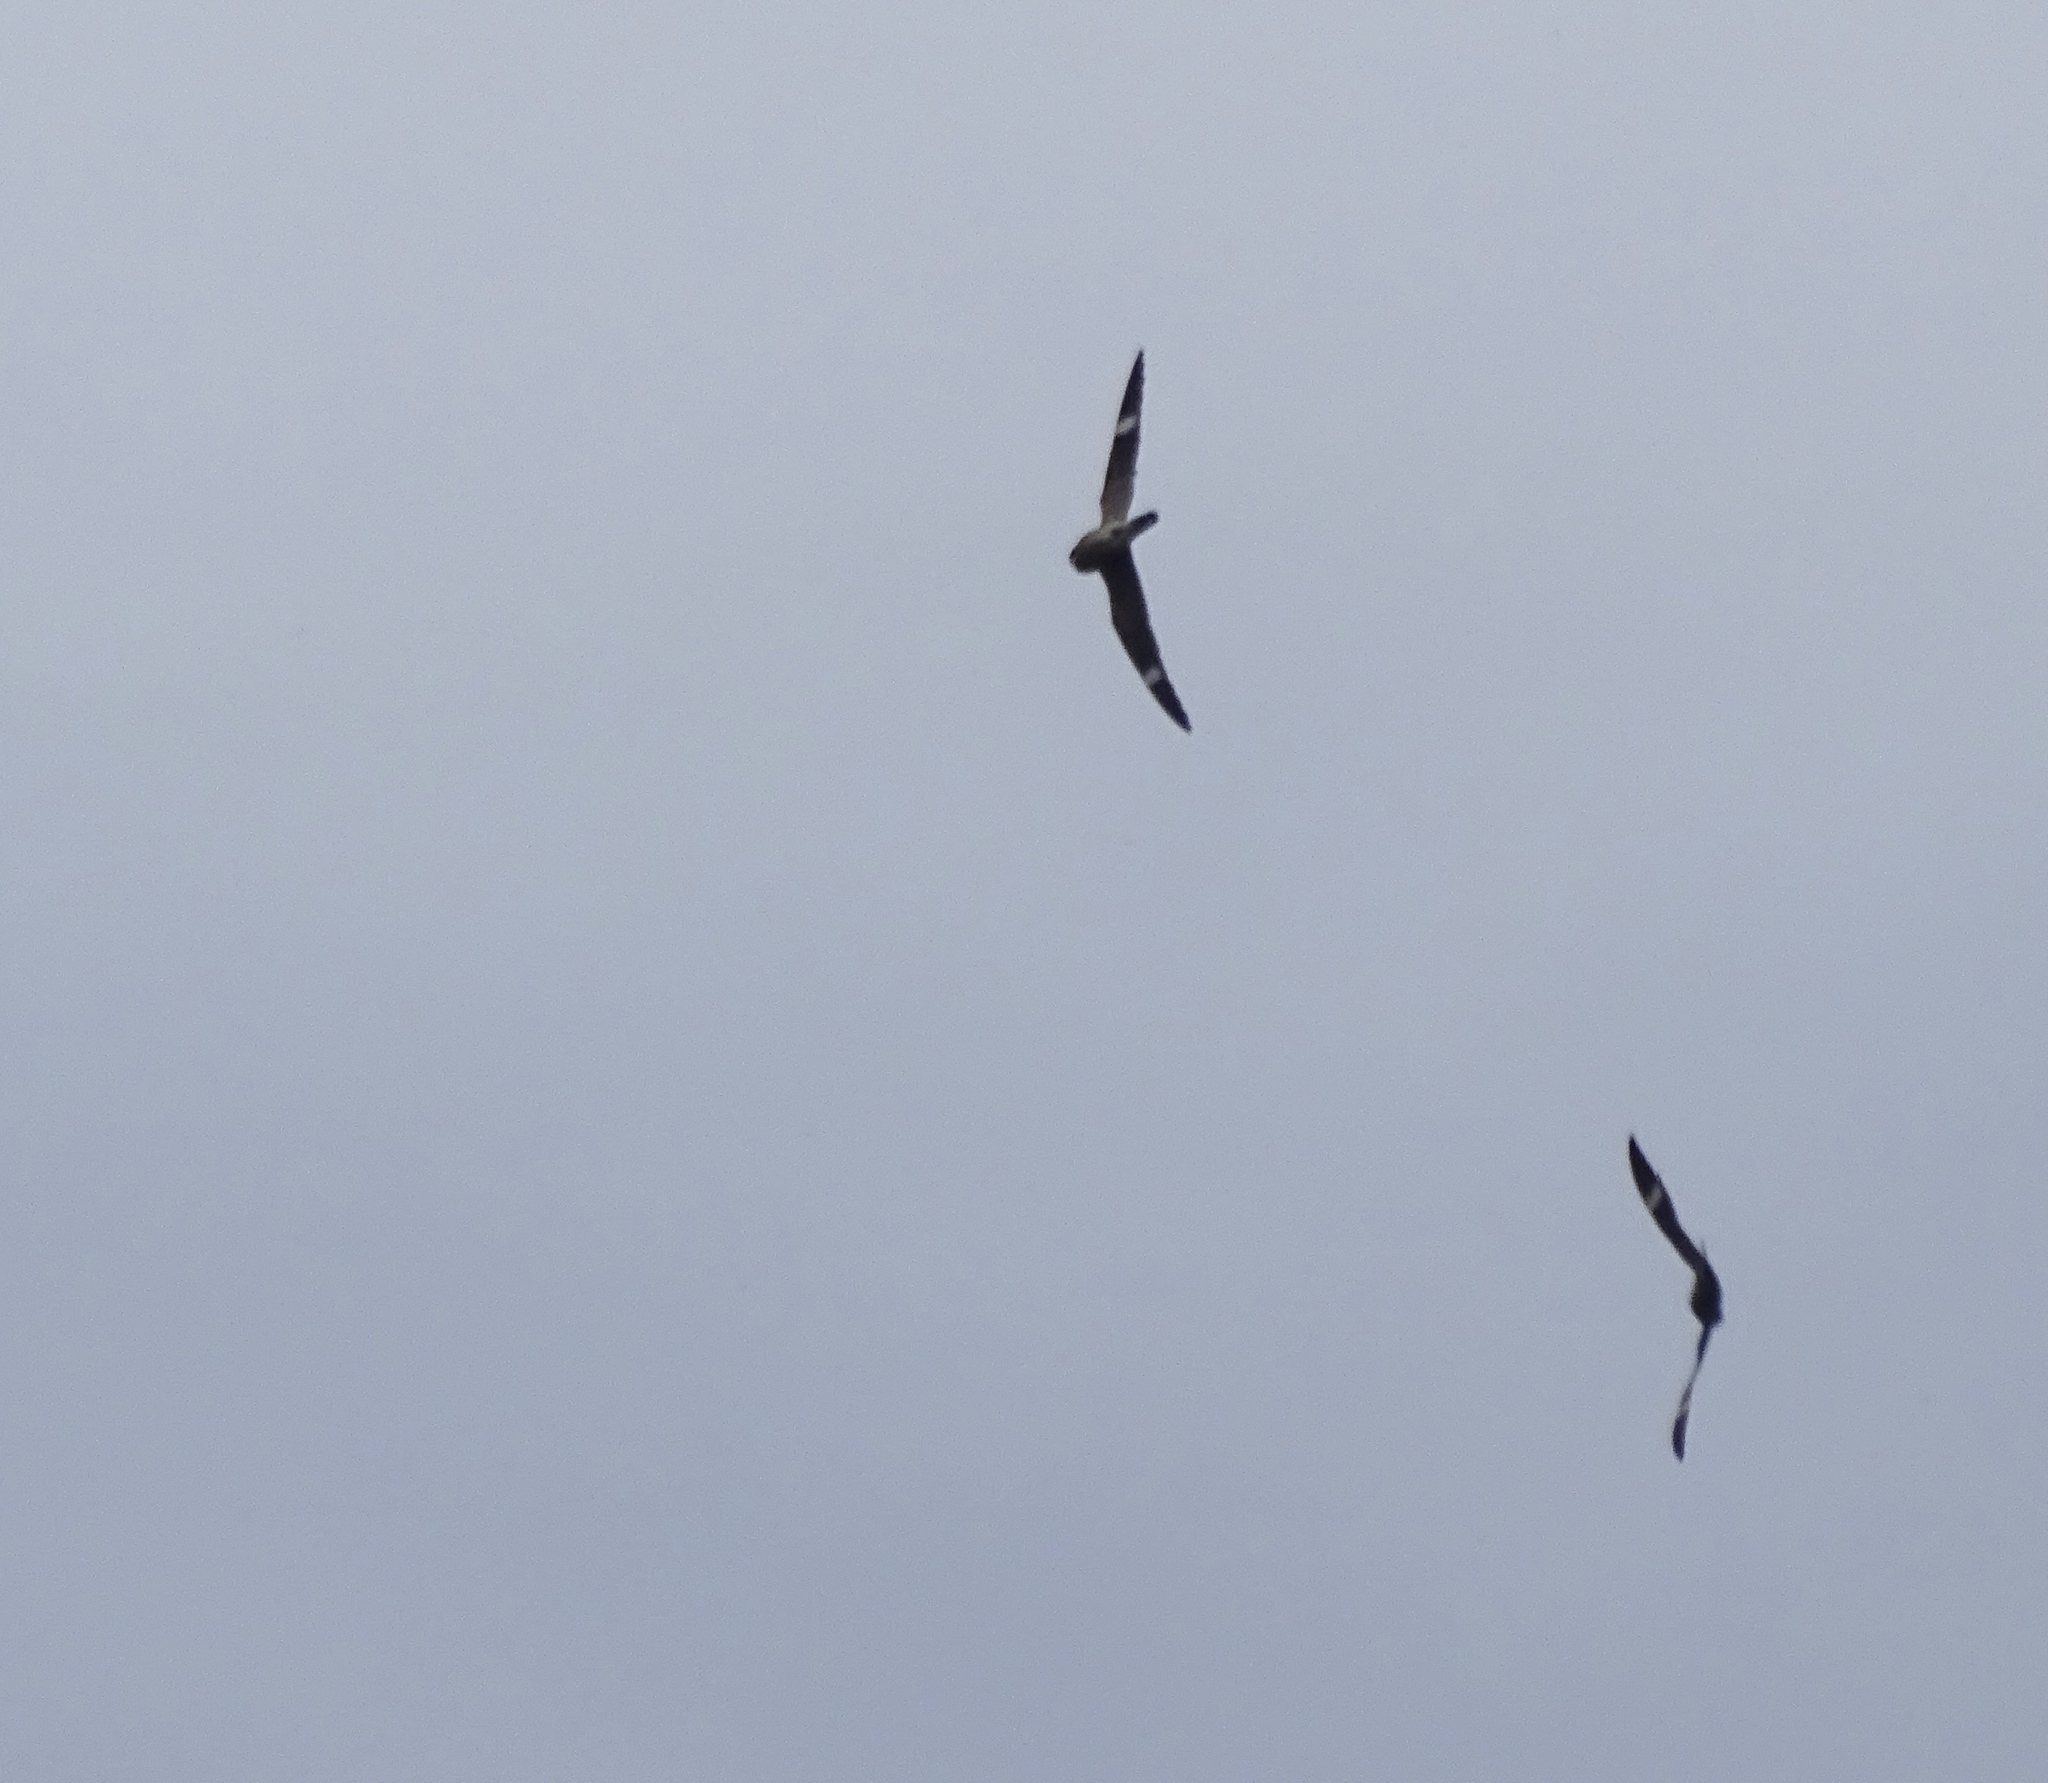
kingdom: Animalia
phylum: Chordata
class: Aves
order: Caprimulgiformes
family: Caprimulgidae
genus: Chordeiles
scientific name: Chordeiles minor
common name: Common nighthawk
